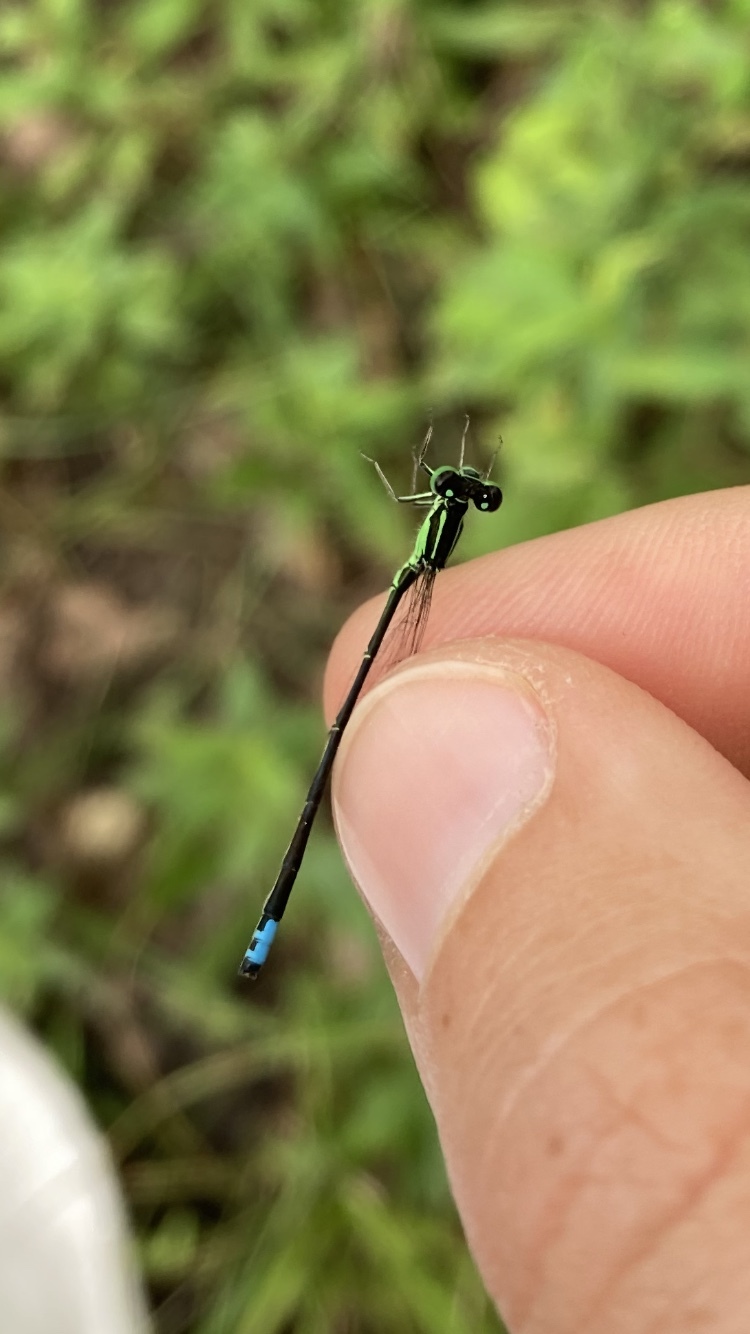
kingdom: Animalia
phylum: Arthropoda
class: Insecta
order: Odonata
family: Coenagrionidae
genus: Ischnura
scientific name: Ischnura verticalis
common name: Eastern forktail
